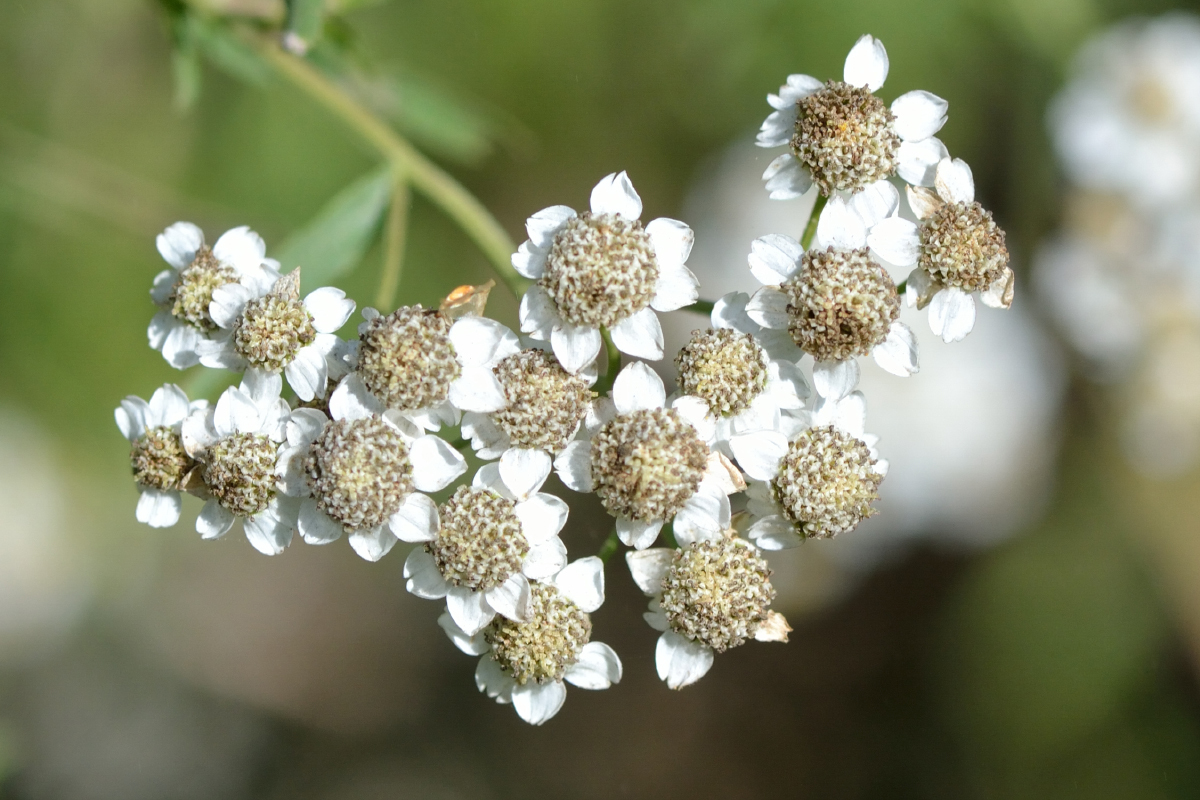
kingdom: Plantae
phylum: Tracheophyta
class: Magnoliopsida
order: Asterales
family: Asteraceae
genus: Achillea
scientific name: Achillea salicifolia
